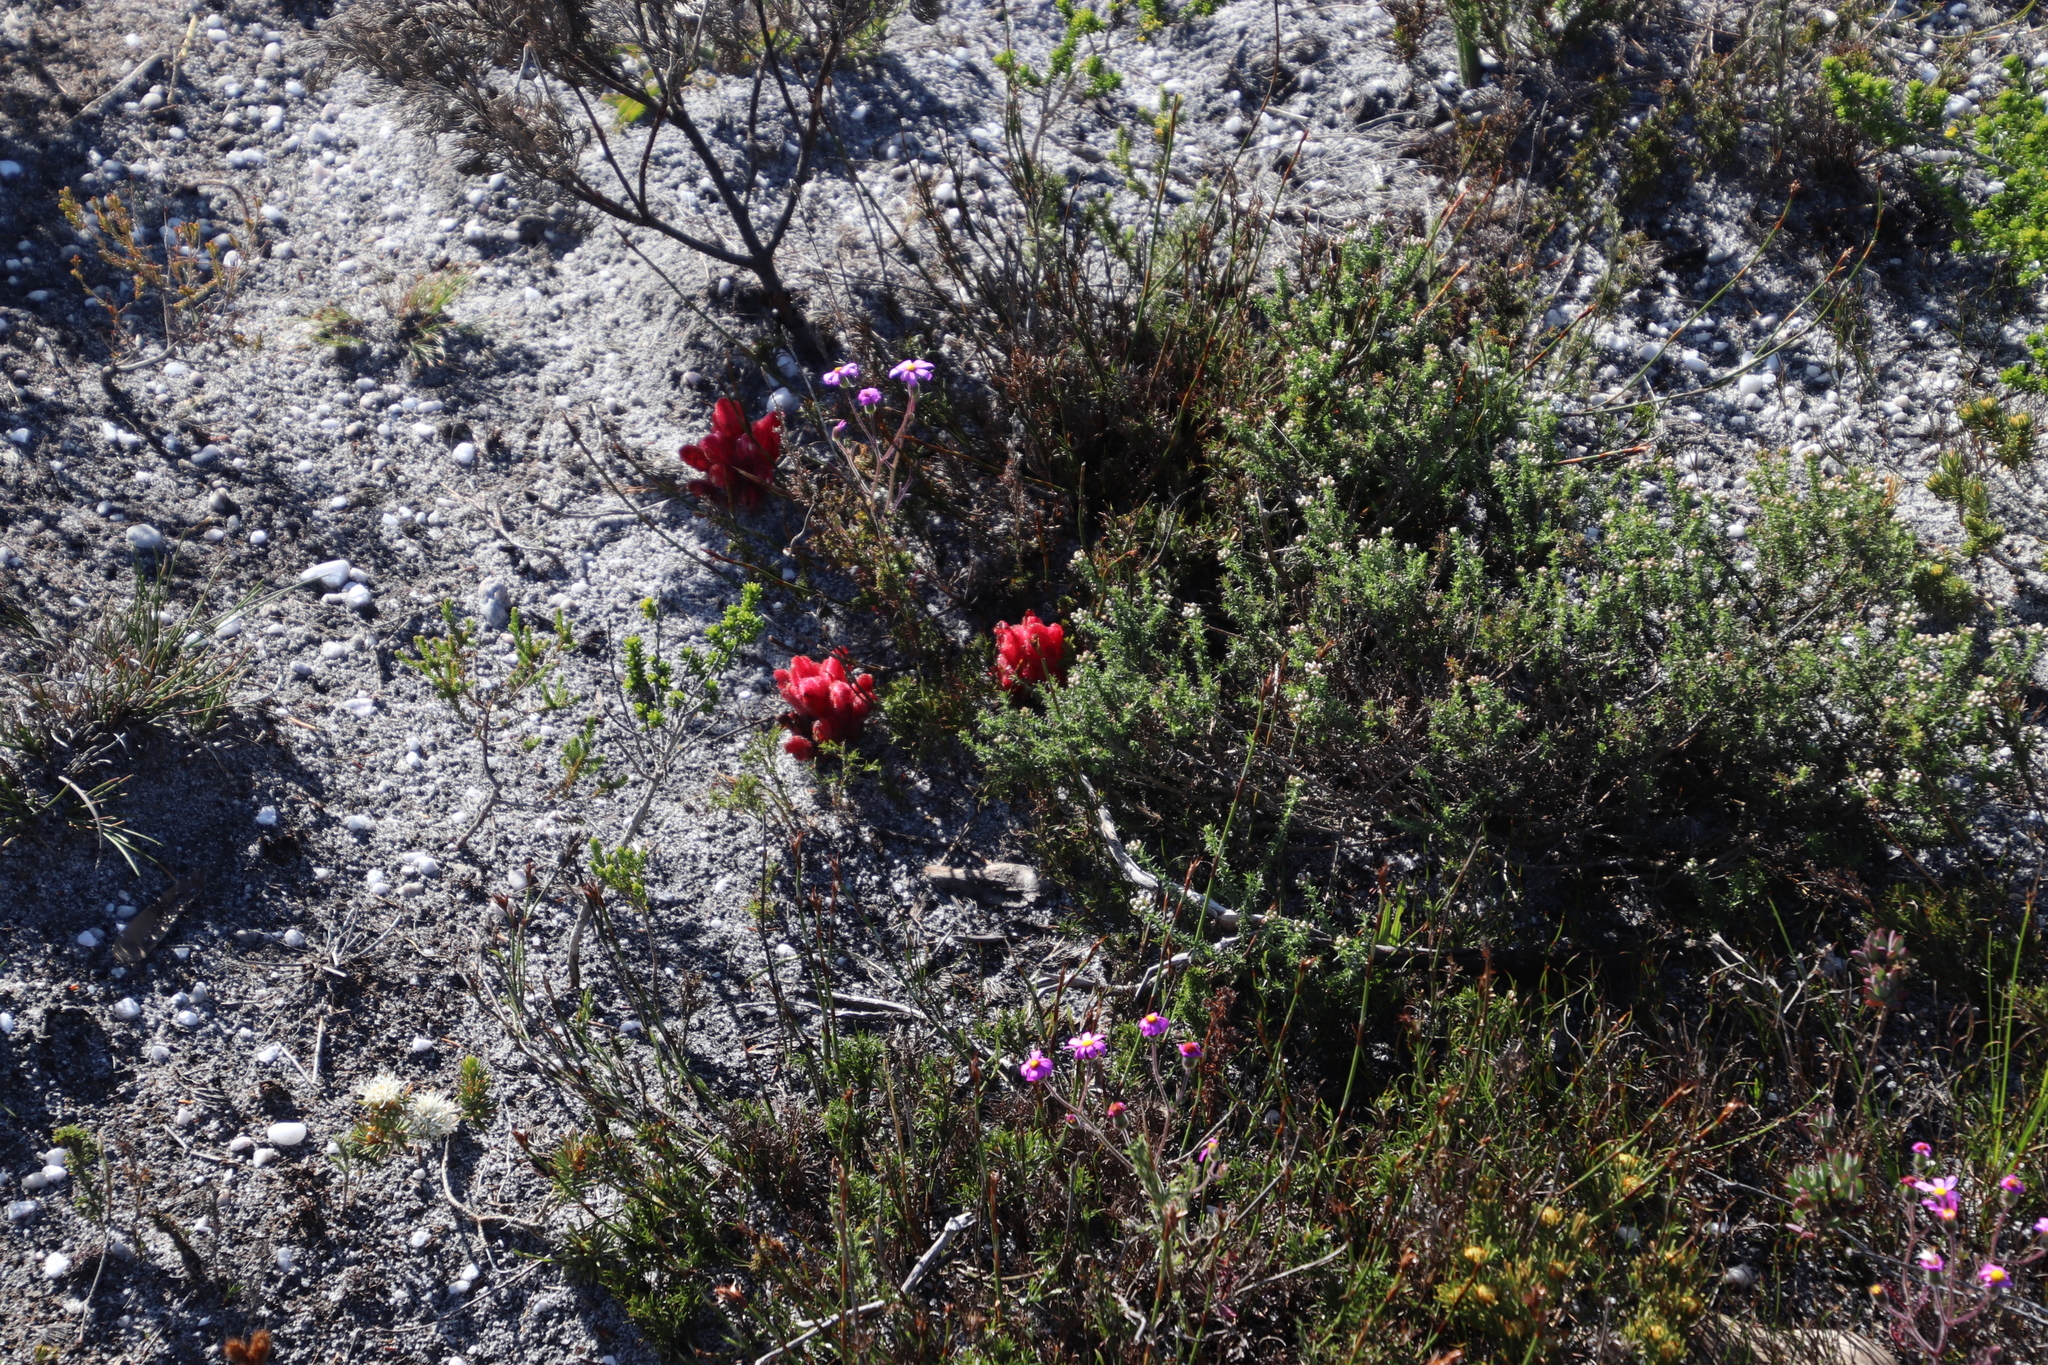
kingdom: Plantae
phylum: Tracheophyta
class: Magnoliopsida
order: Lamiales
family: Orobanchaceae
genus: Hyobanche
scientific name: Hyobanche sanguinea
